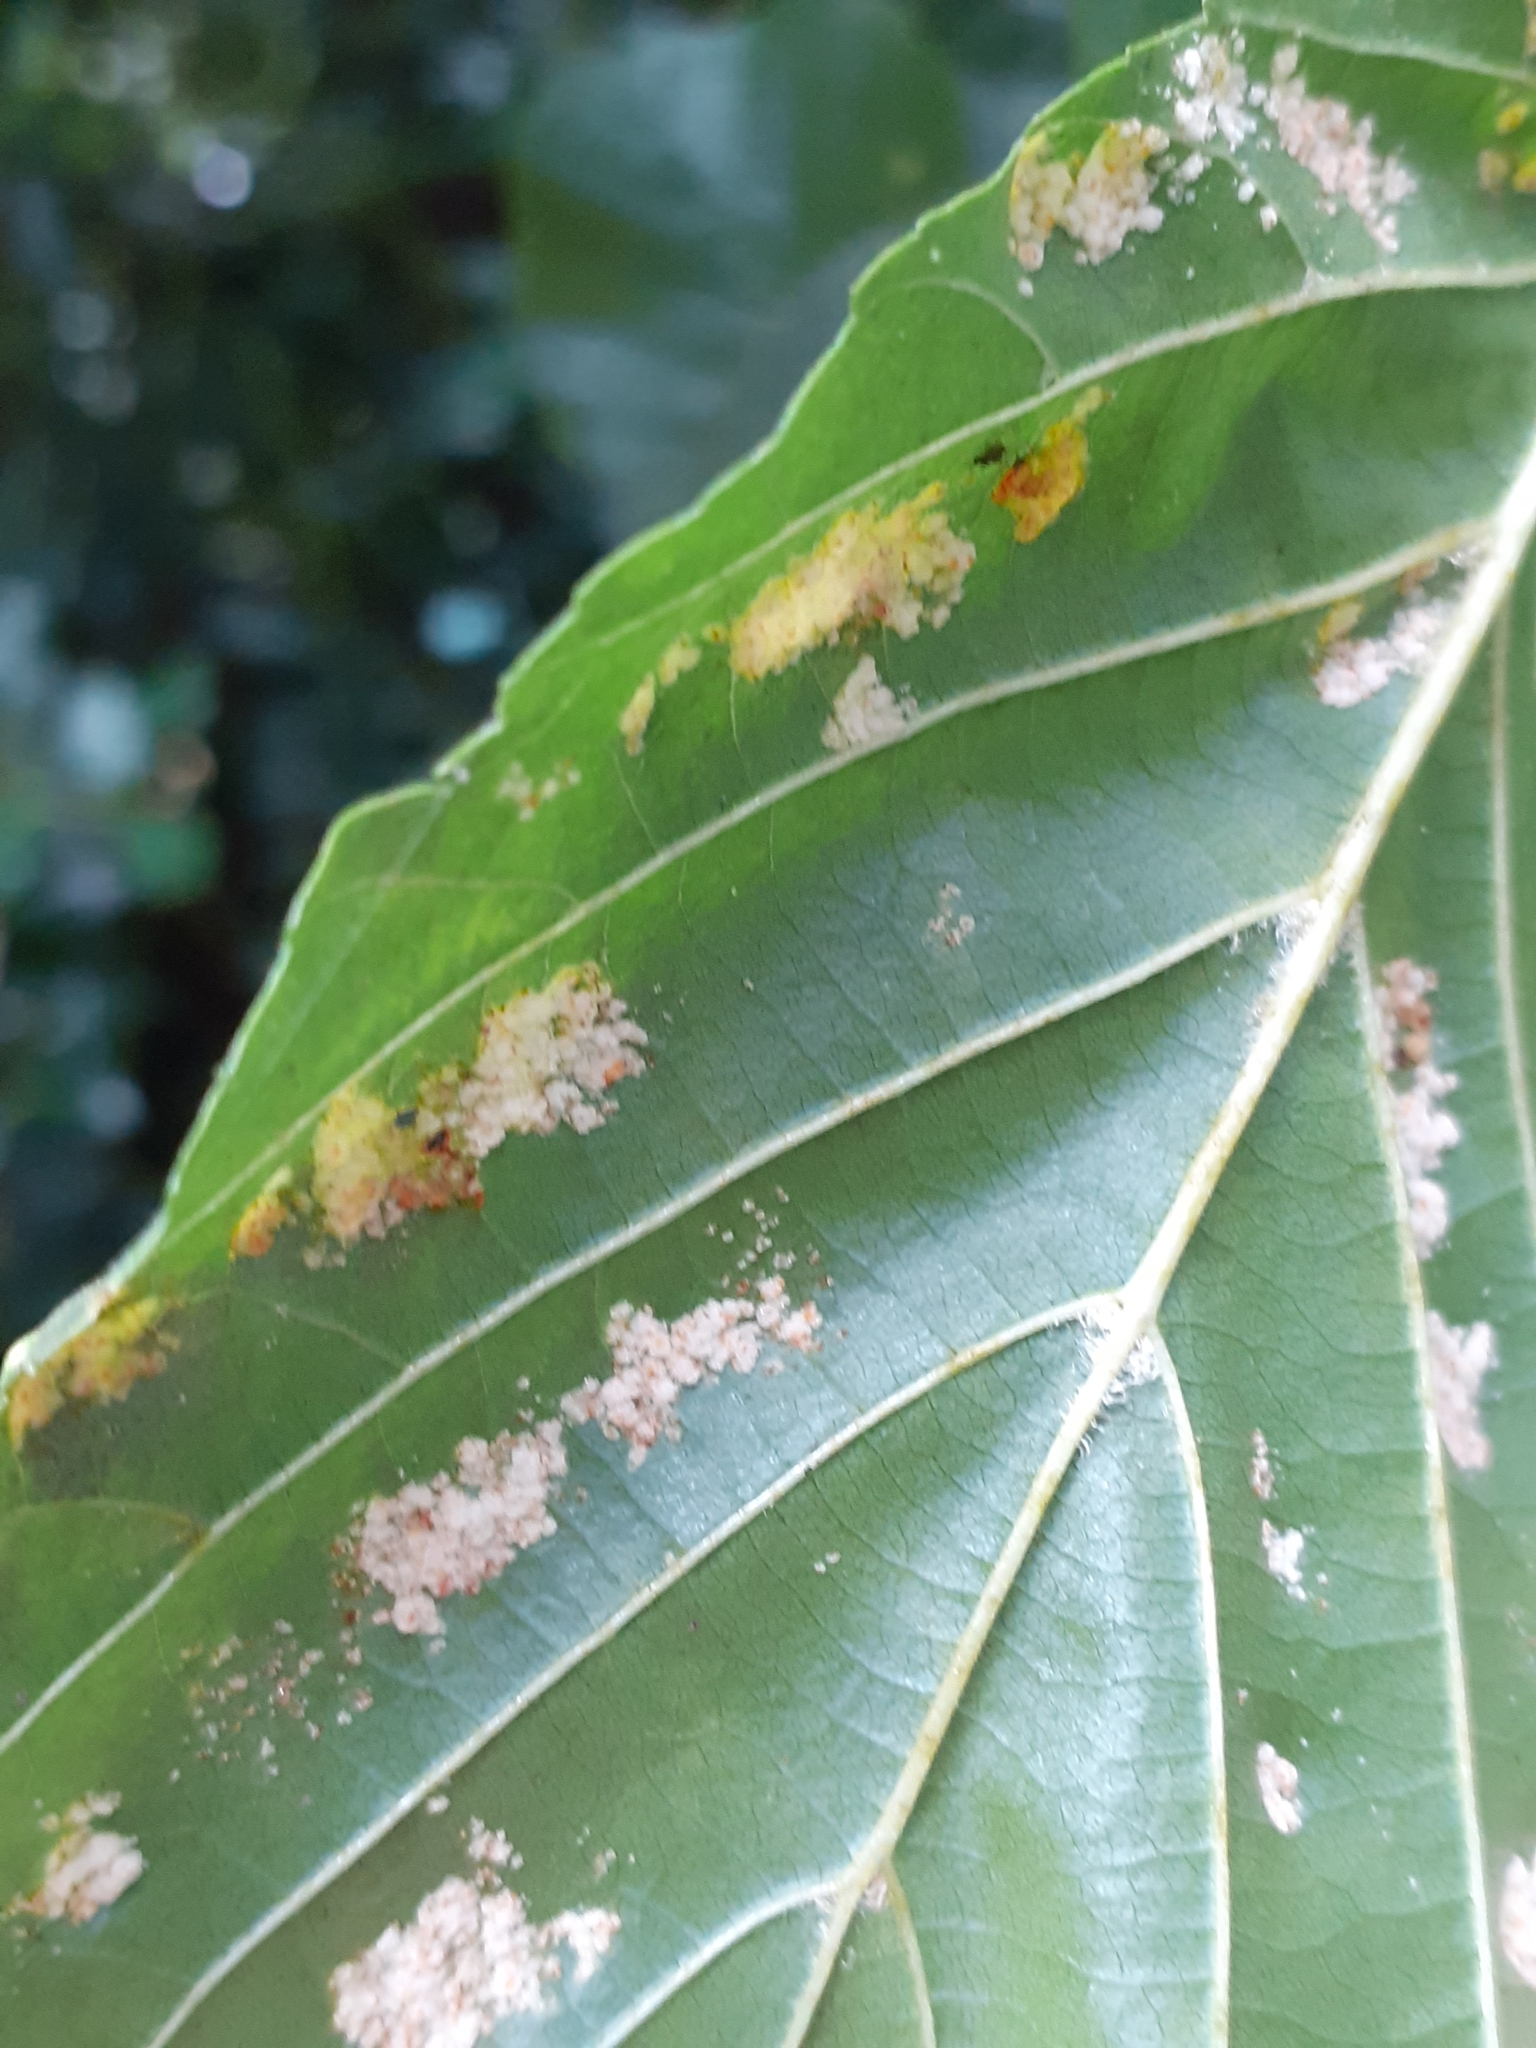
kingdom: Animalia
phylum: Arthropoda
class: Arachnida
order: Trombidiformes
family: Eriophyidae
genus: Acalitus
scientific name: Acalitus brevitarsus
